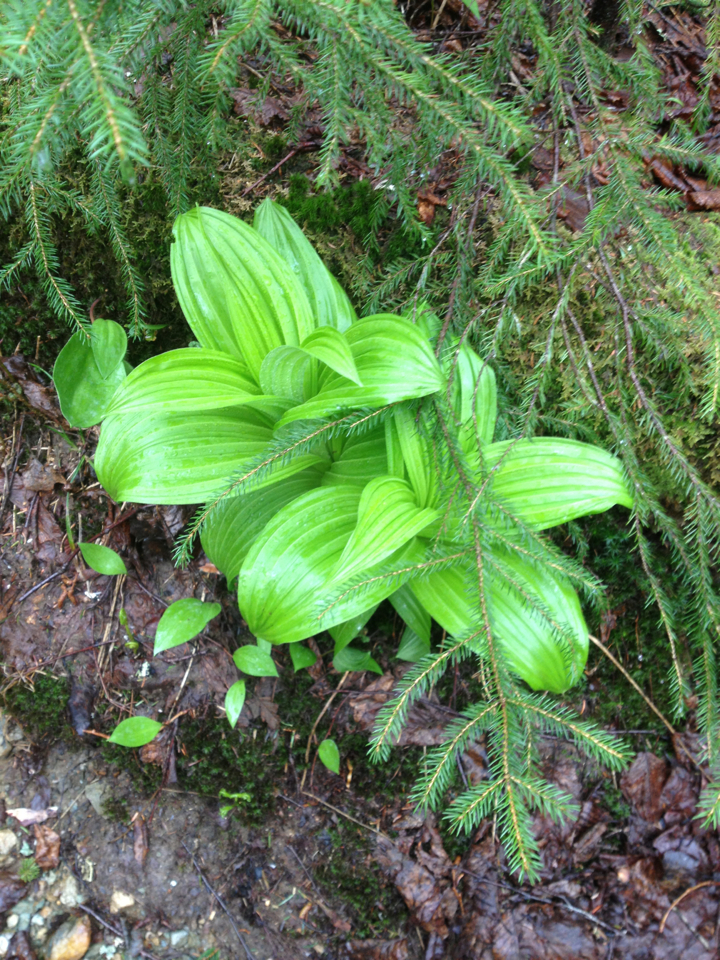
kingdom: Plantae
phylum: Tracheophyta
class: Liliopsida
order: Liliales
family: Melanthiaceae
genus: Veratrum
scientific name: Veratrum viride
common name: American false hellebore
